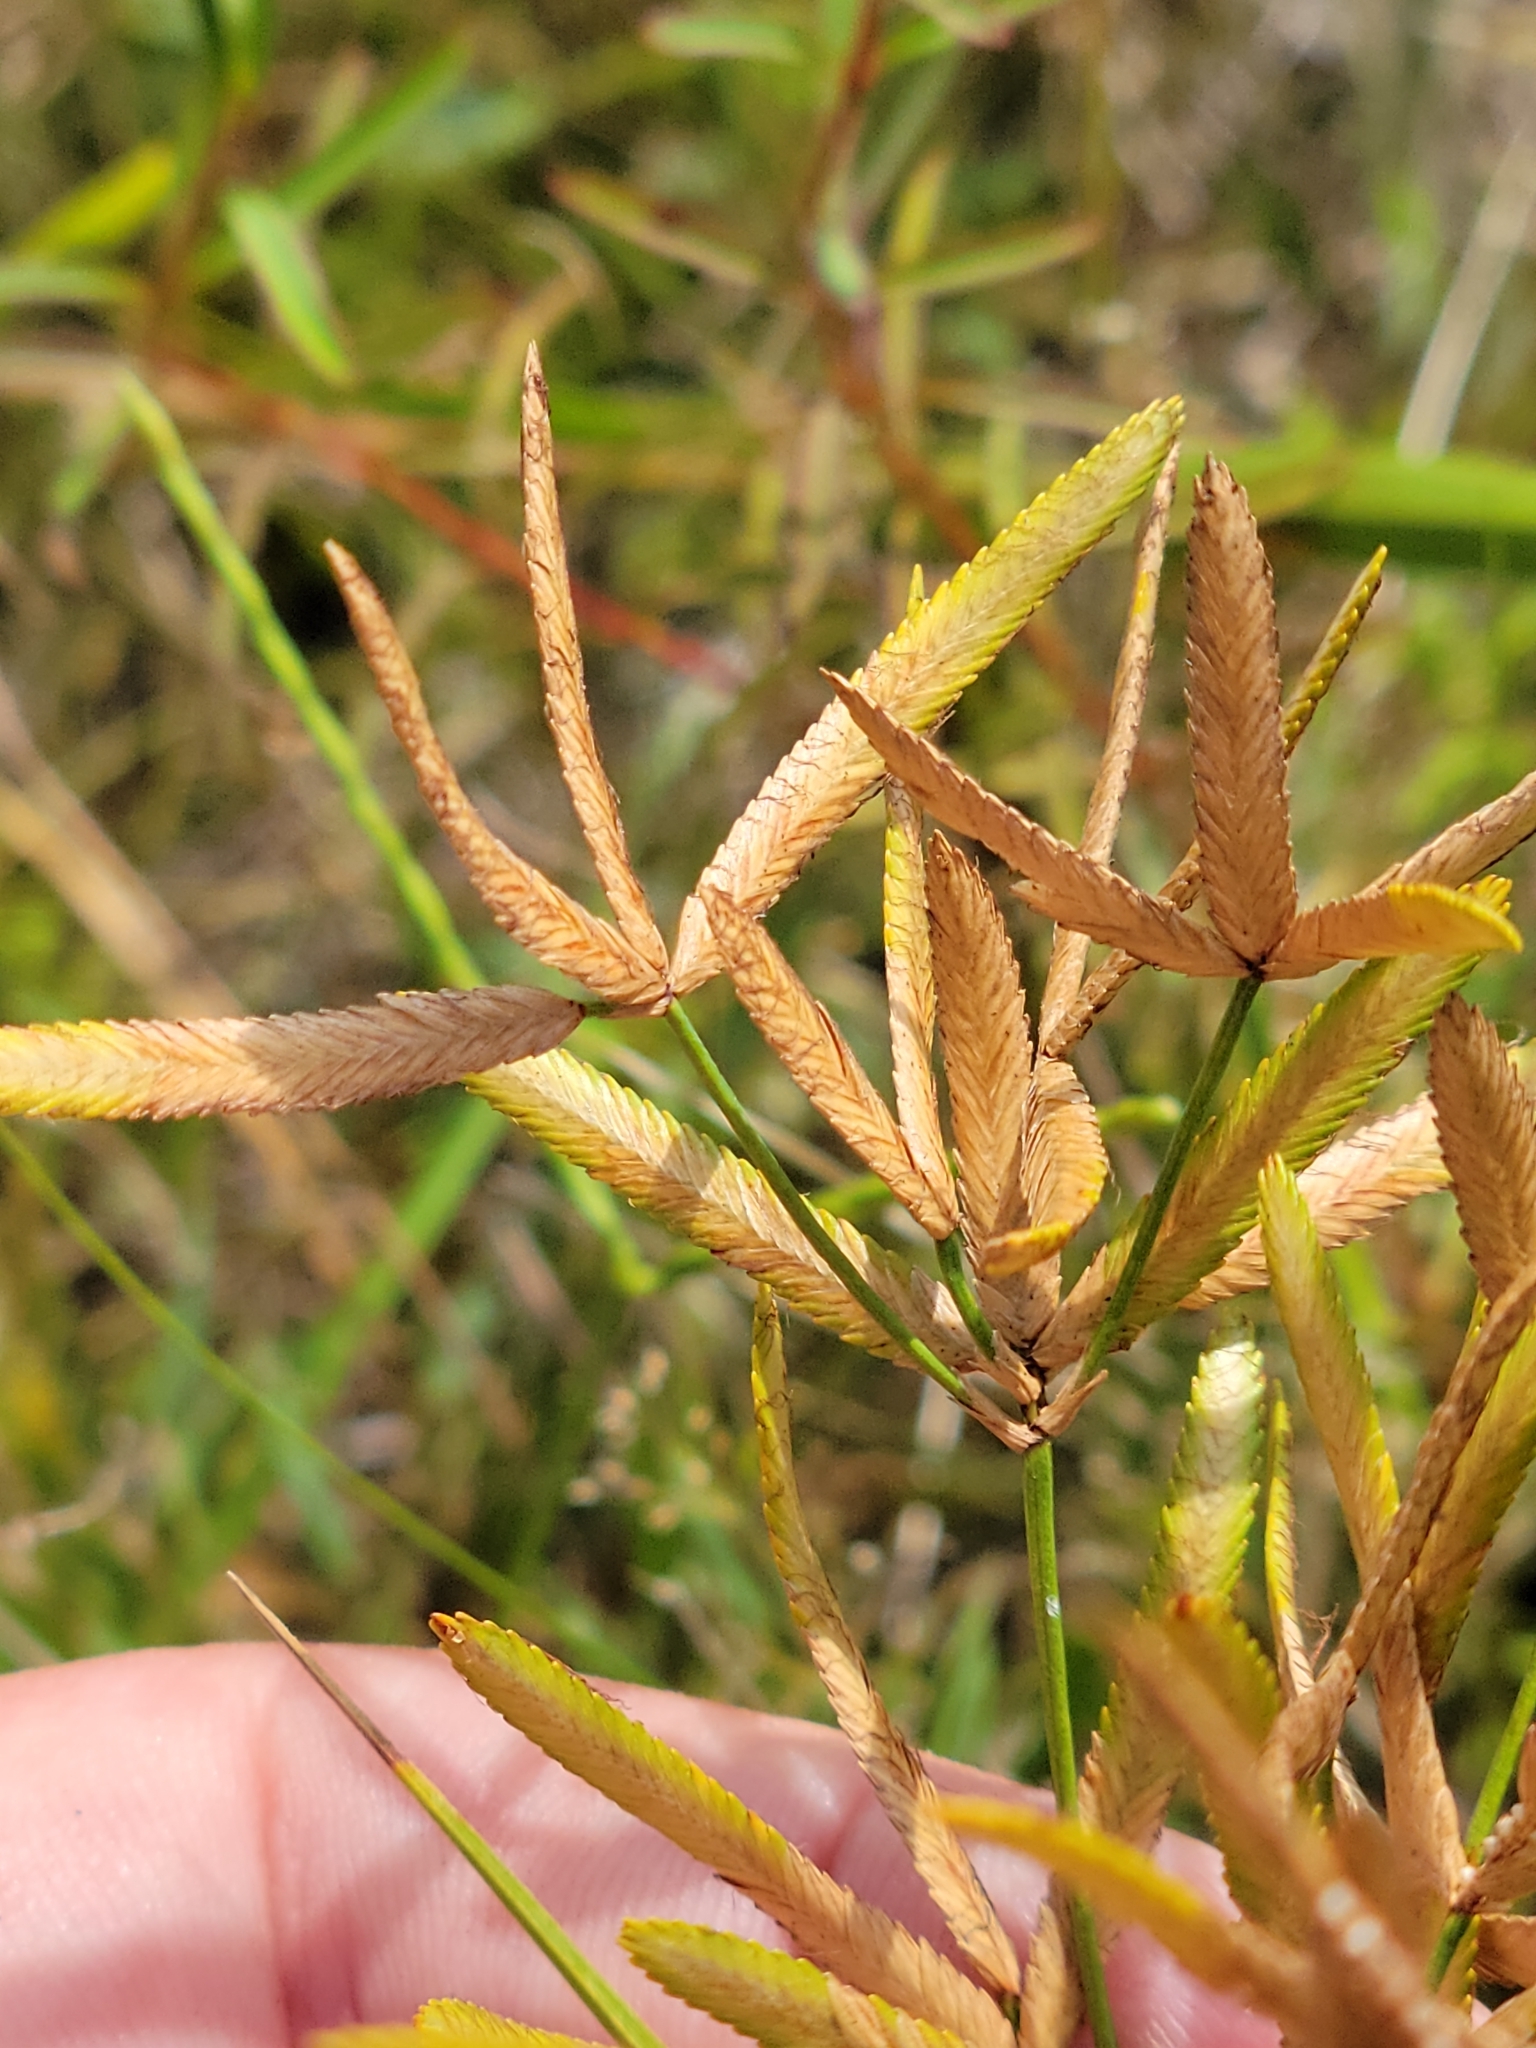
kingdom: Plantae
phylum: Tracheophyta
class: Liliopsida
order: Poales
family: Cyperaceae
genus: Cyperus
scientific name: Cyperus lecontei
